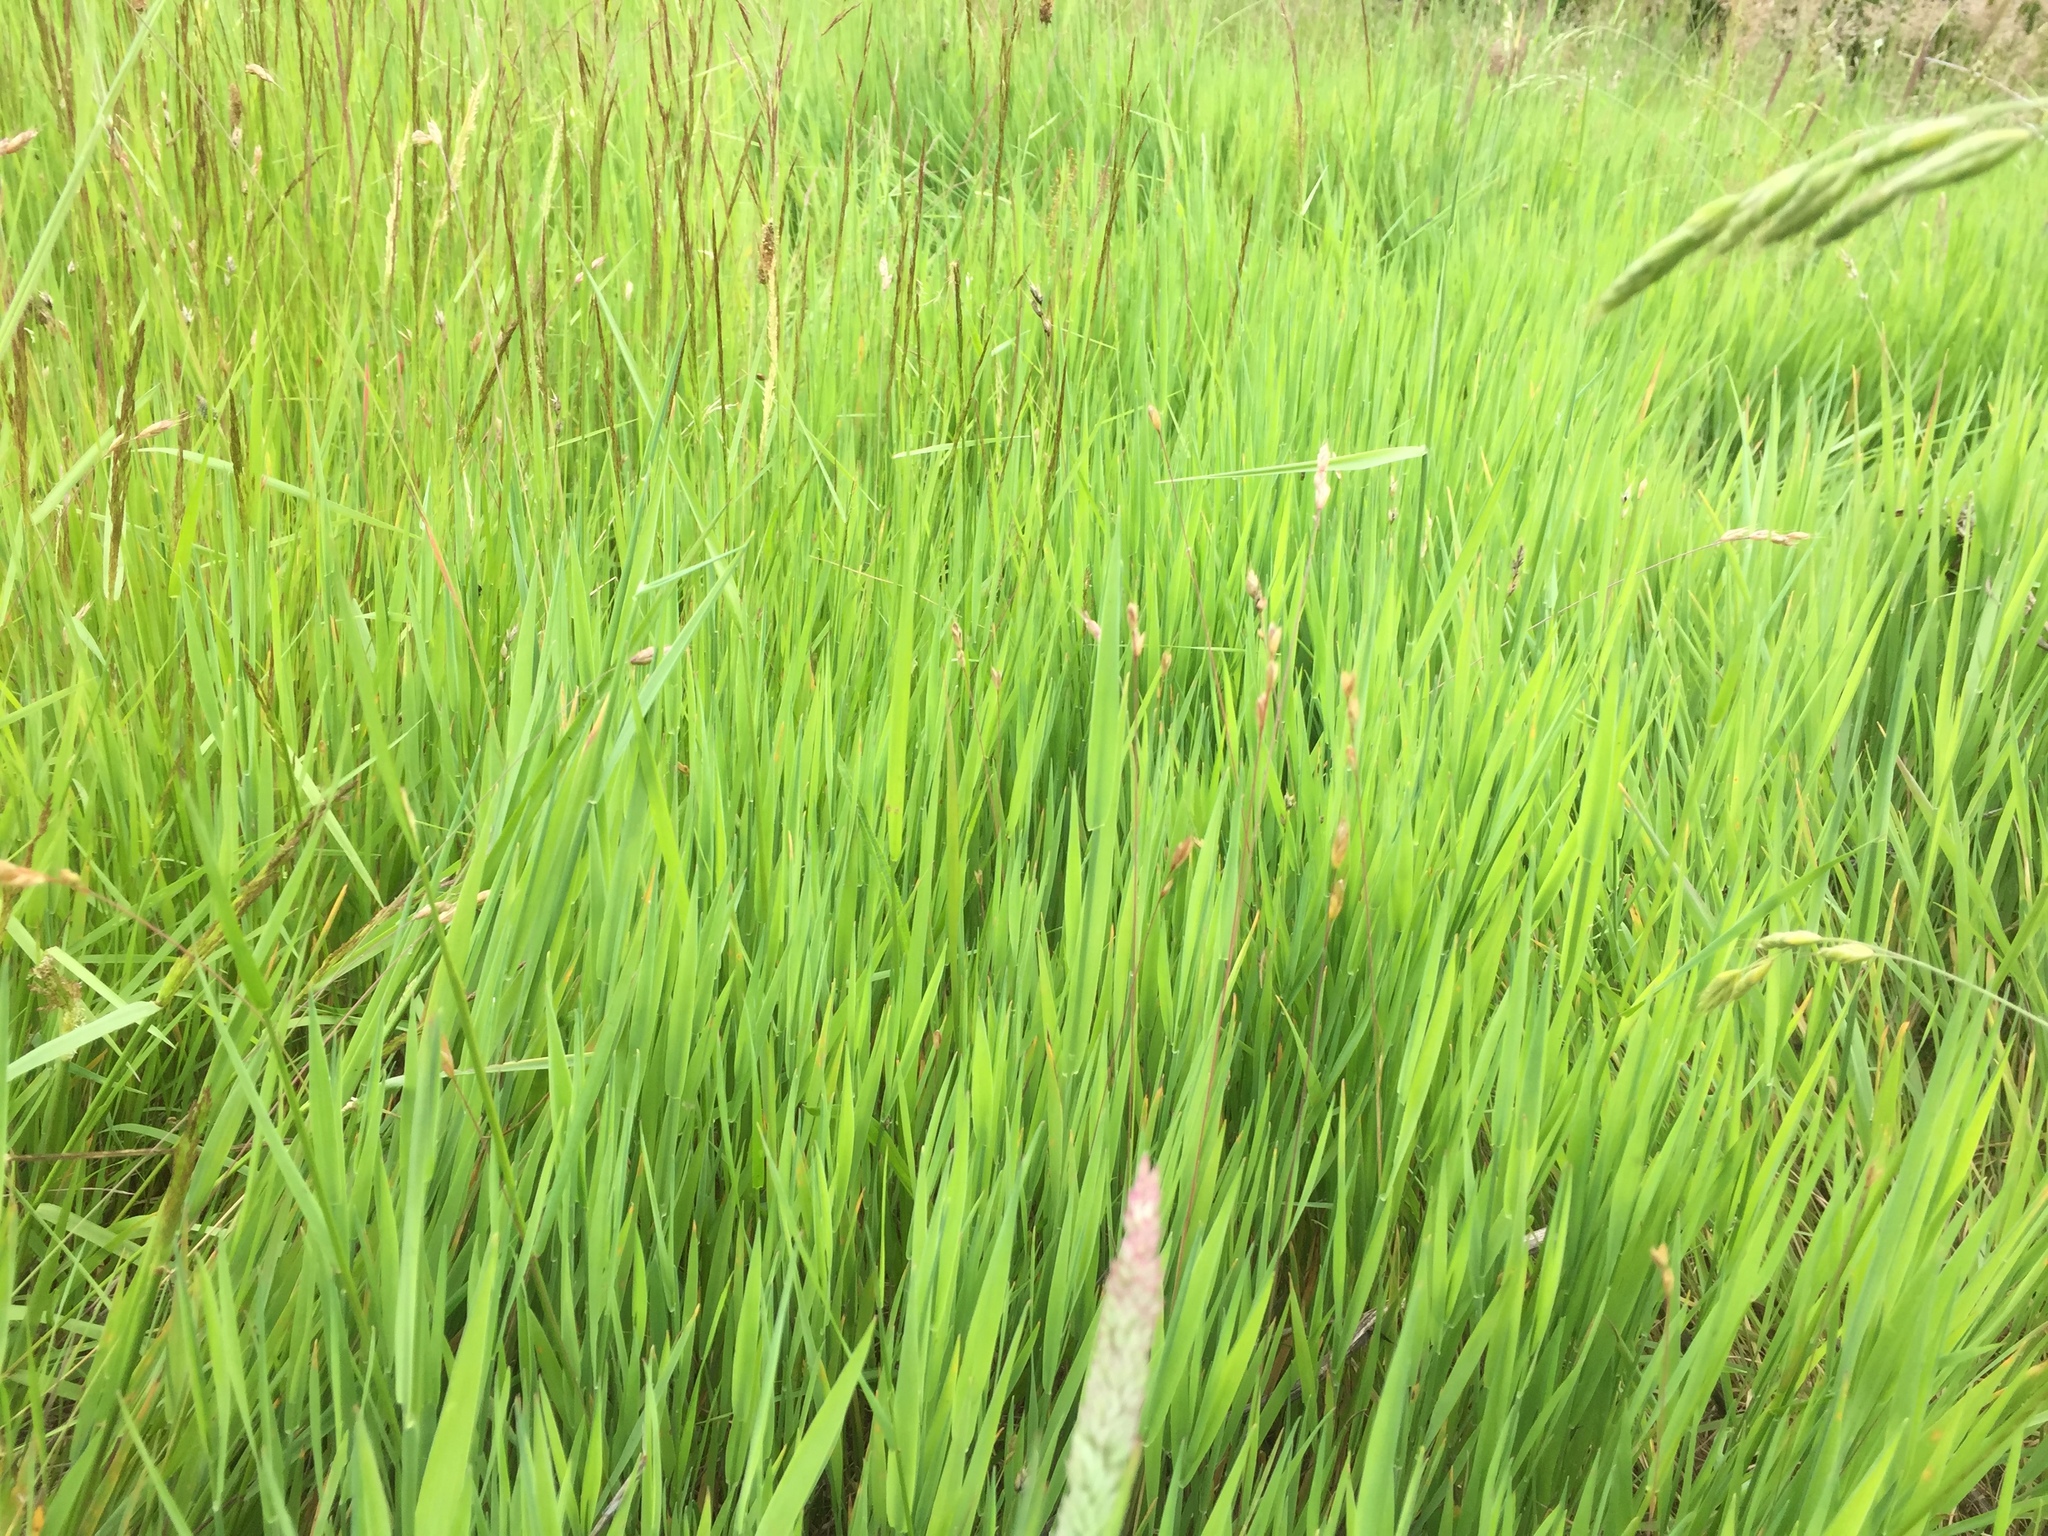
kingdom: Plantae
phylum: Tracheophyta
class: Liliopsida
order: Poales
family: Poaceae
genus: Holcus
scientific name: Holcus mollis
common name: Creeping velvetgrass
